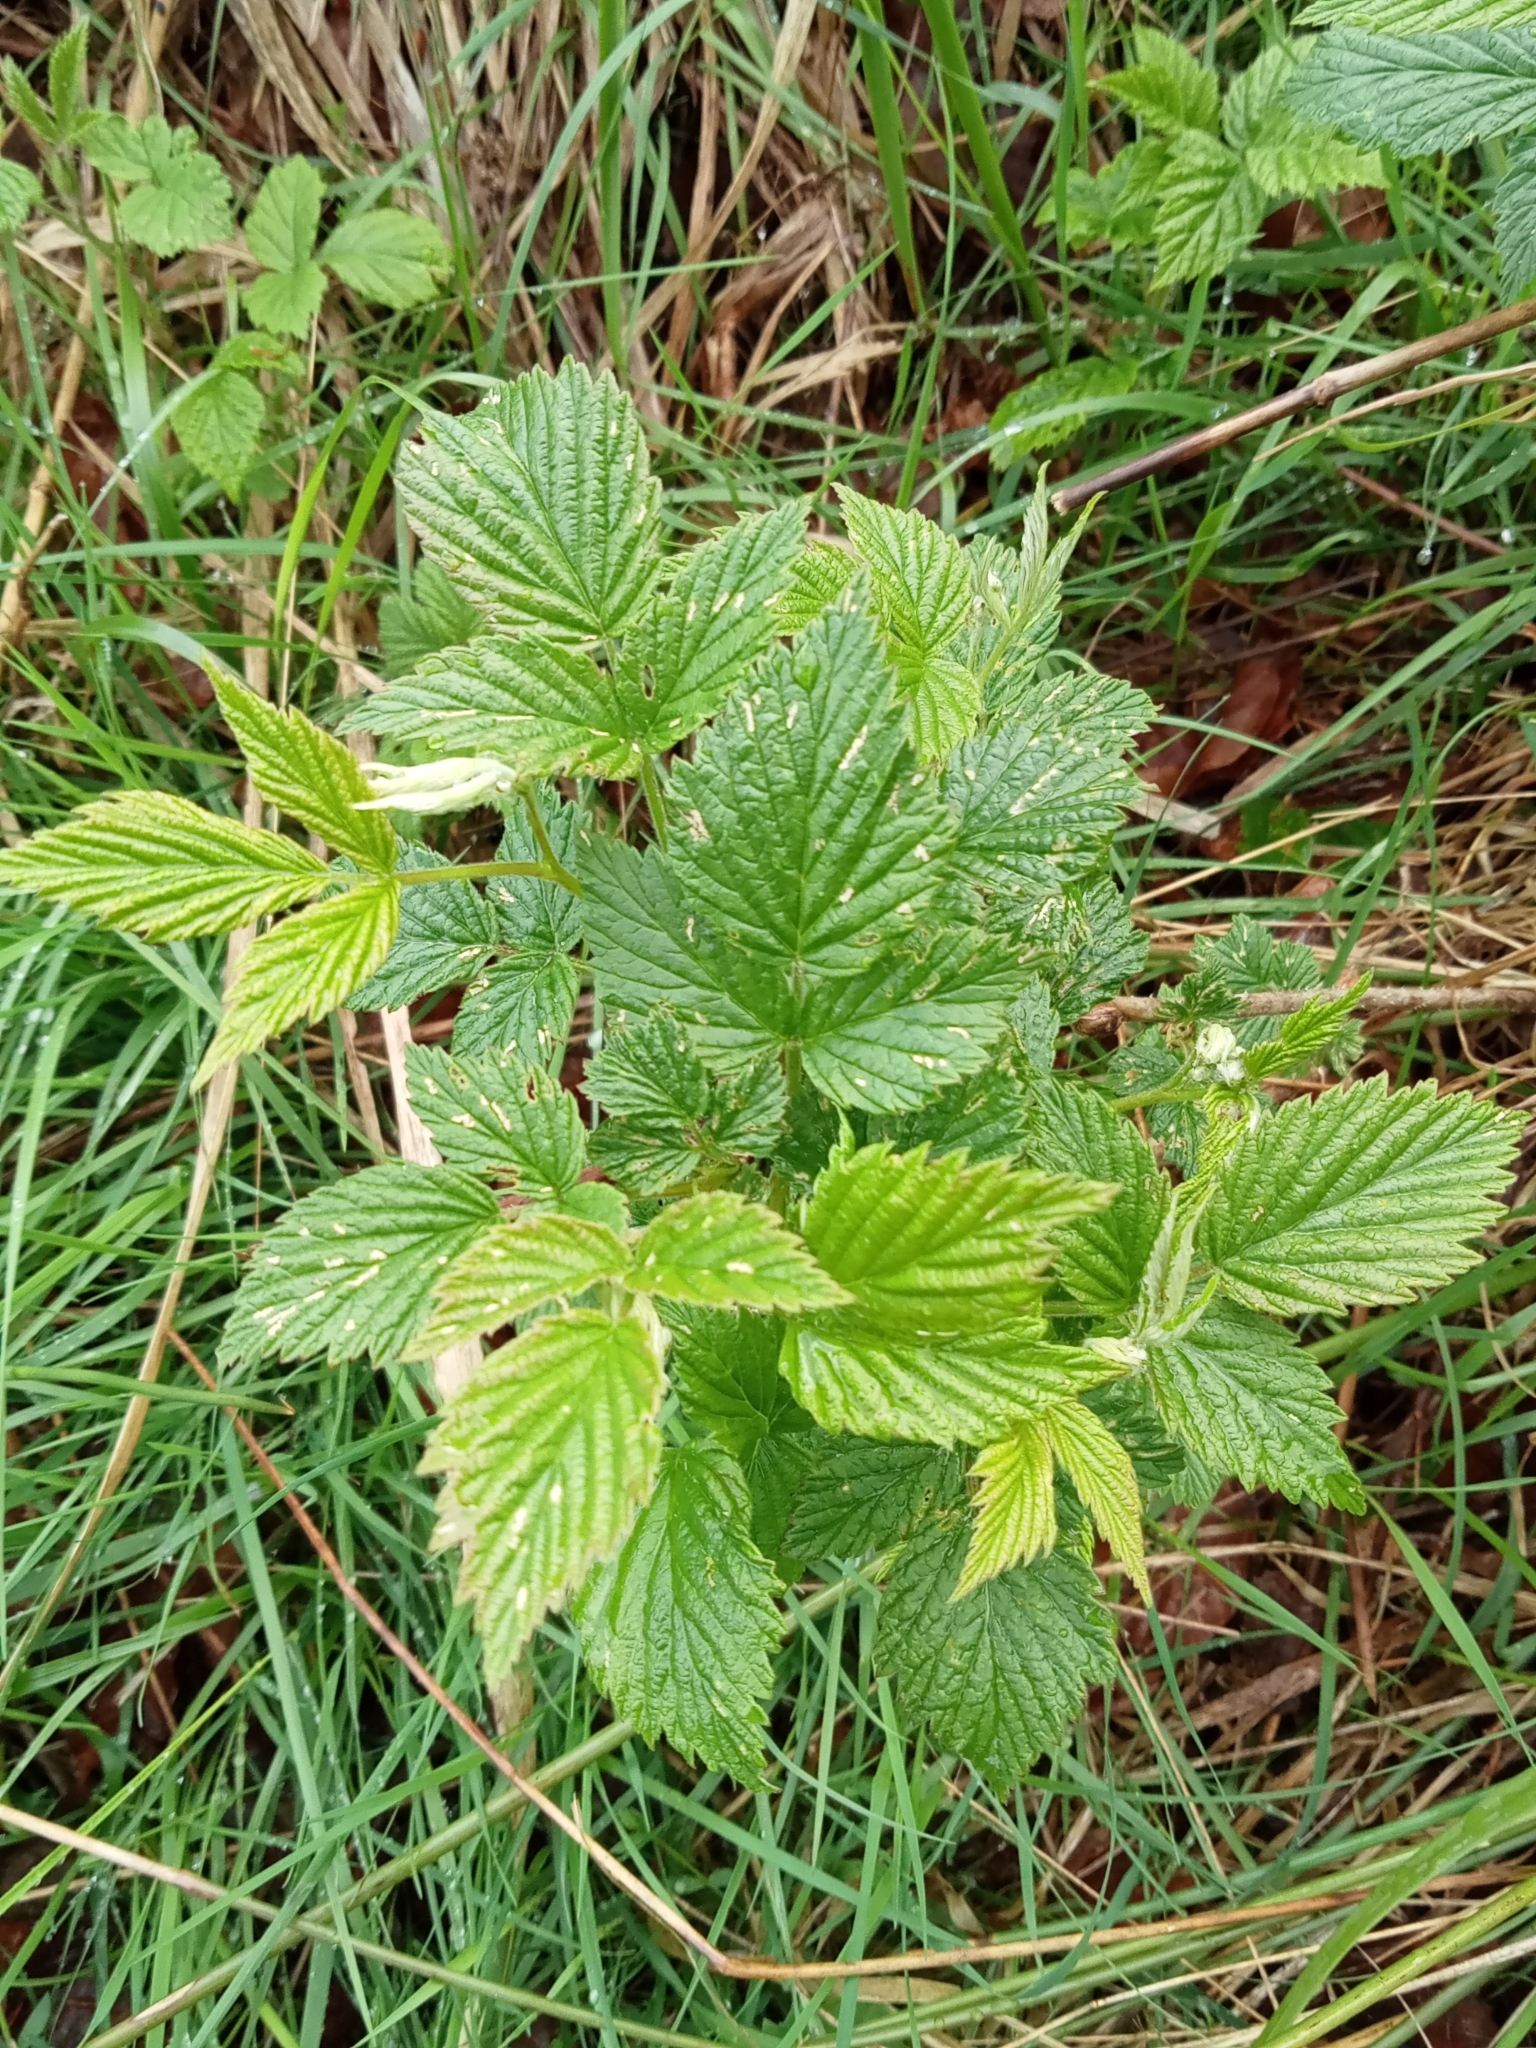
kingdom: Plantae
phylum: Tracheophyta
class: Magnoliopsida
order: Rosales
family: Rosaceae
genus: Rubus
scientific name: Rubus idaeus
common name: Raspberry
